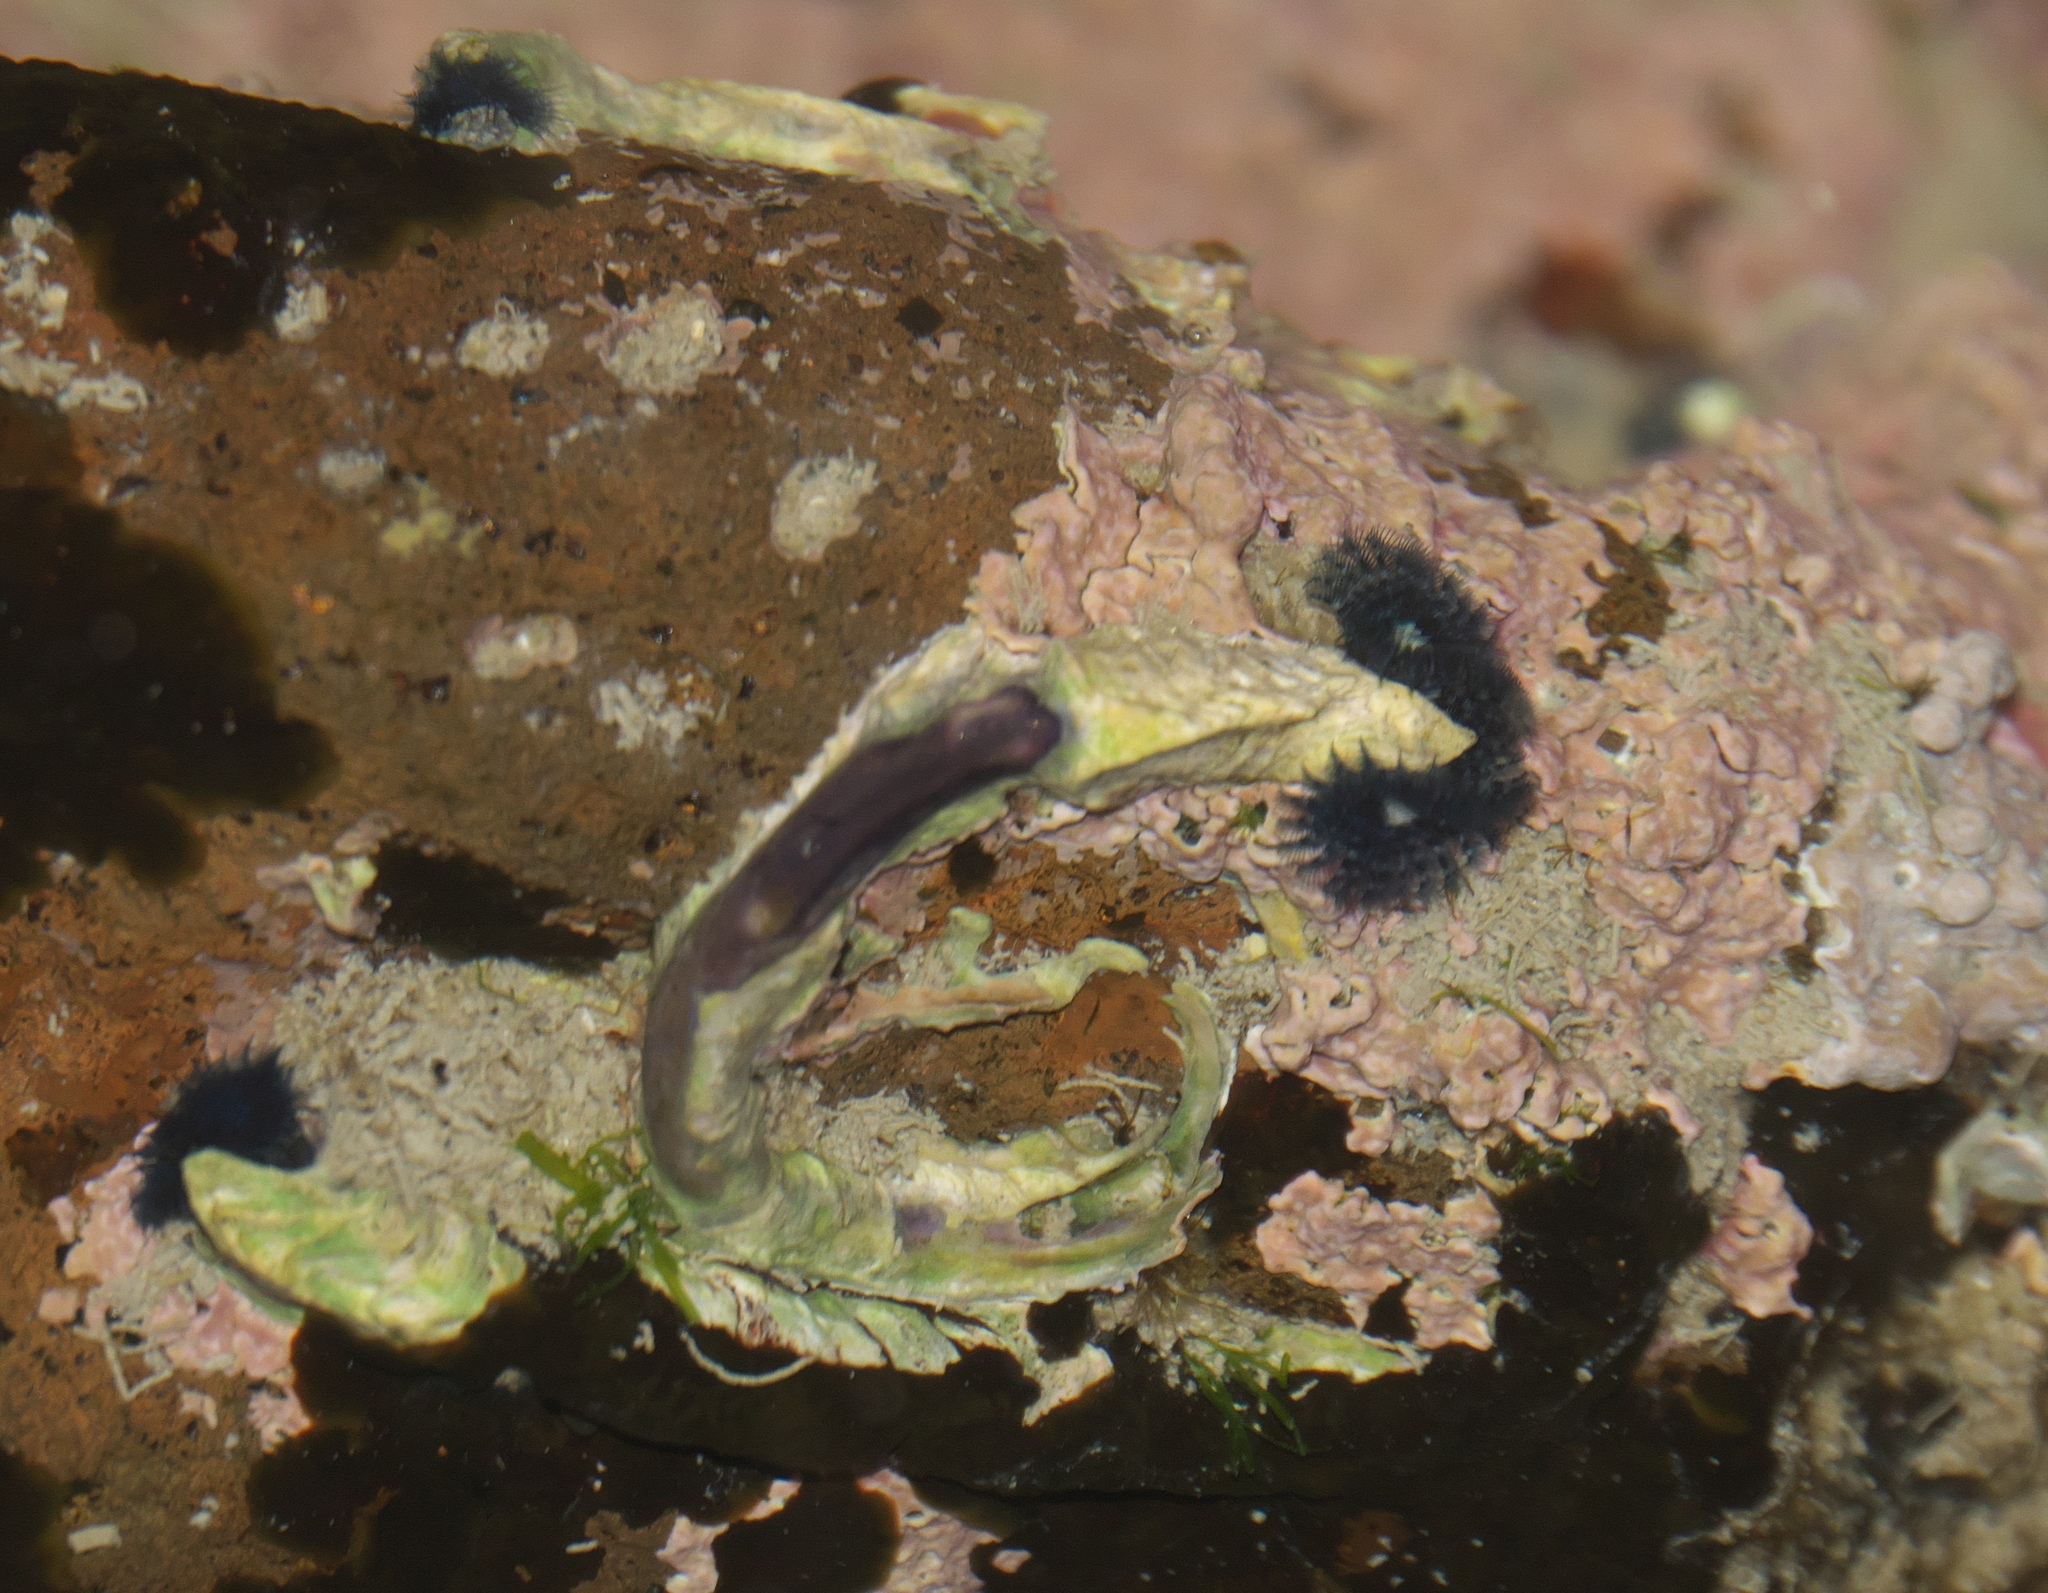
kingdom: Animalia
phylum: Annelida
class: Polychaeta
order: Sabellida
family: Serpulidae
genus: Spirobranchus
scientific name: Spirobranchus cariniferus
